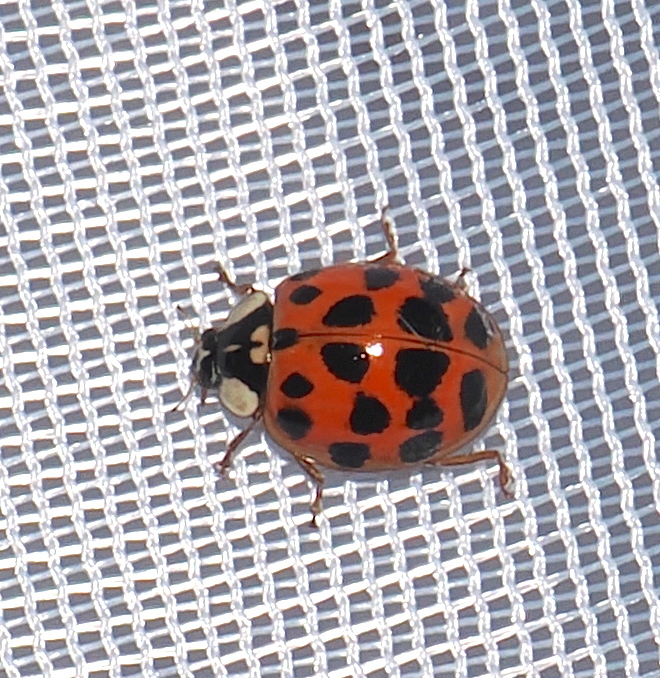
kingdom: Animalia
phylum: Arthropoda
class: Insecta
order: Coleoptera
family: Coccinellidae
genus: Harmonia
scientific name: Harmonia axyridis
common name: Harlequin ladybird
